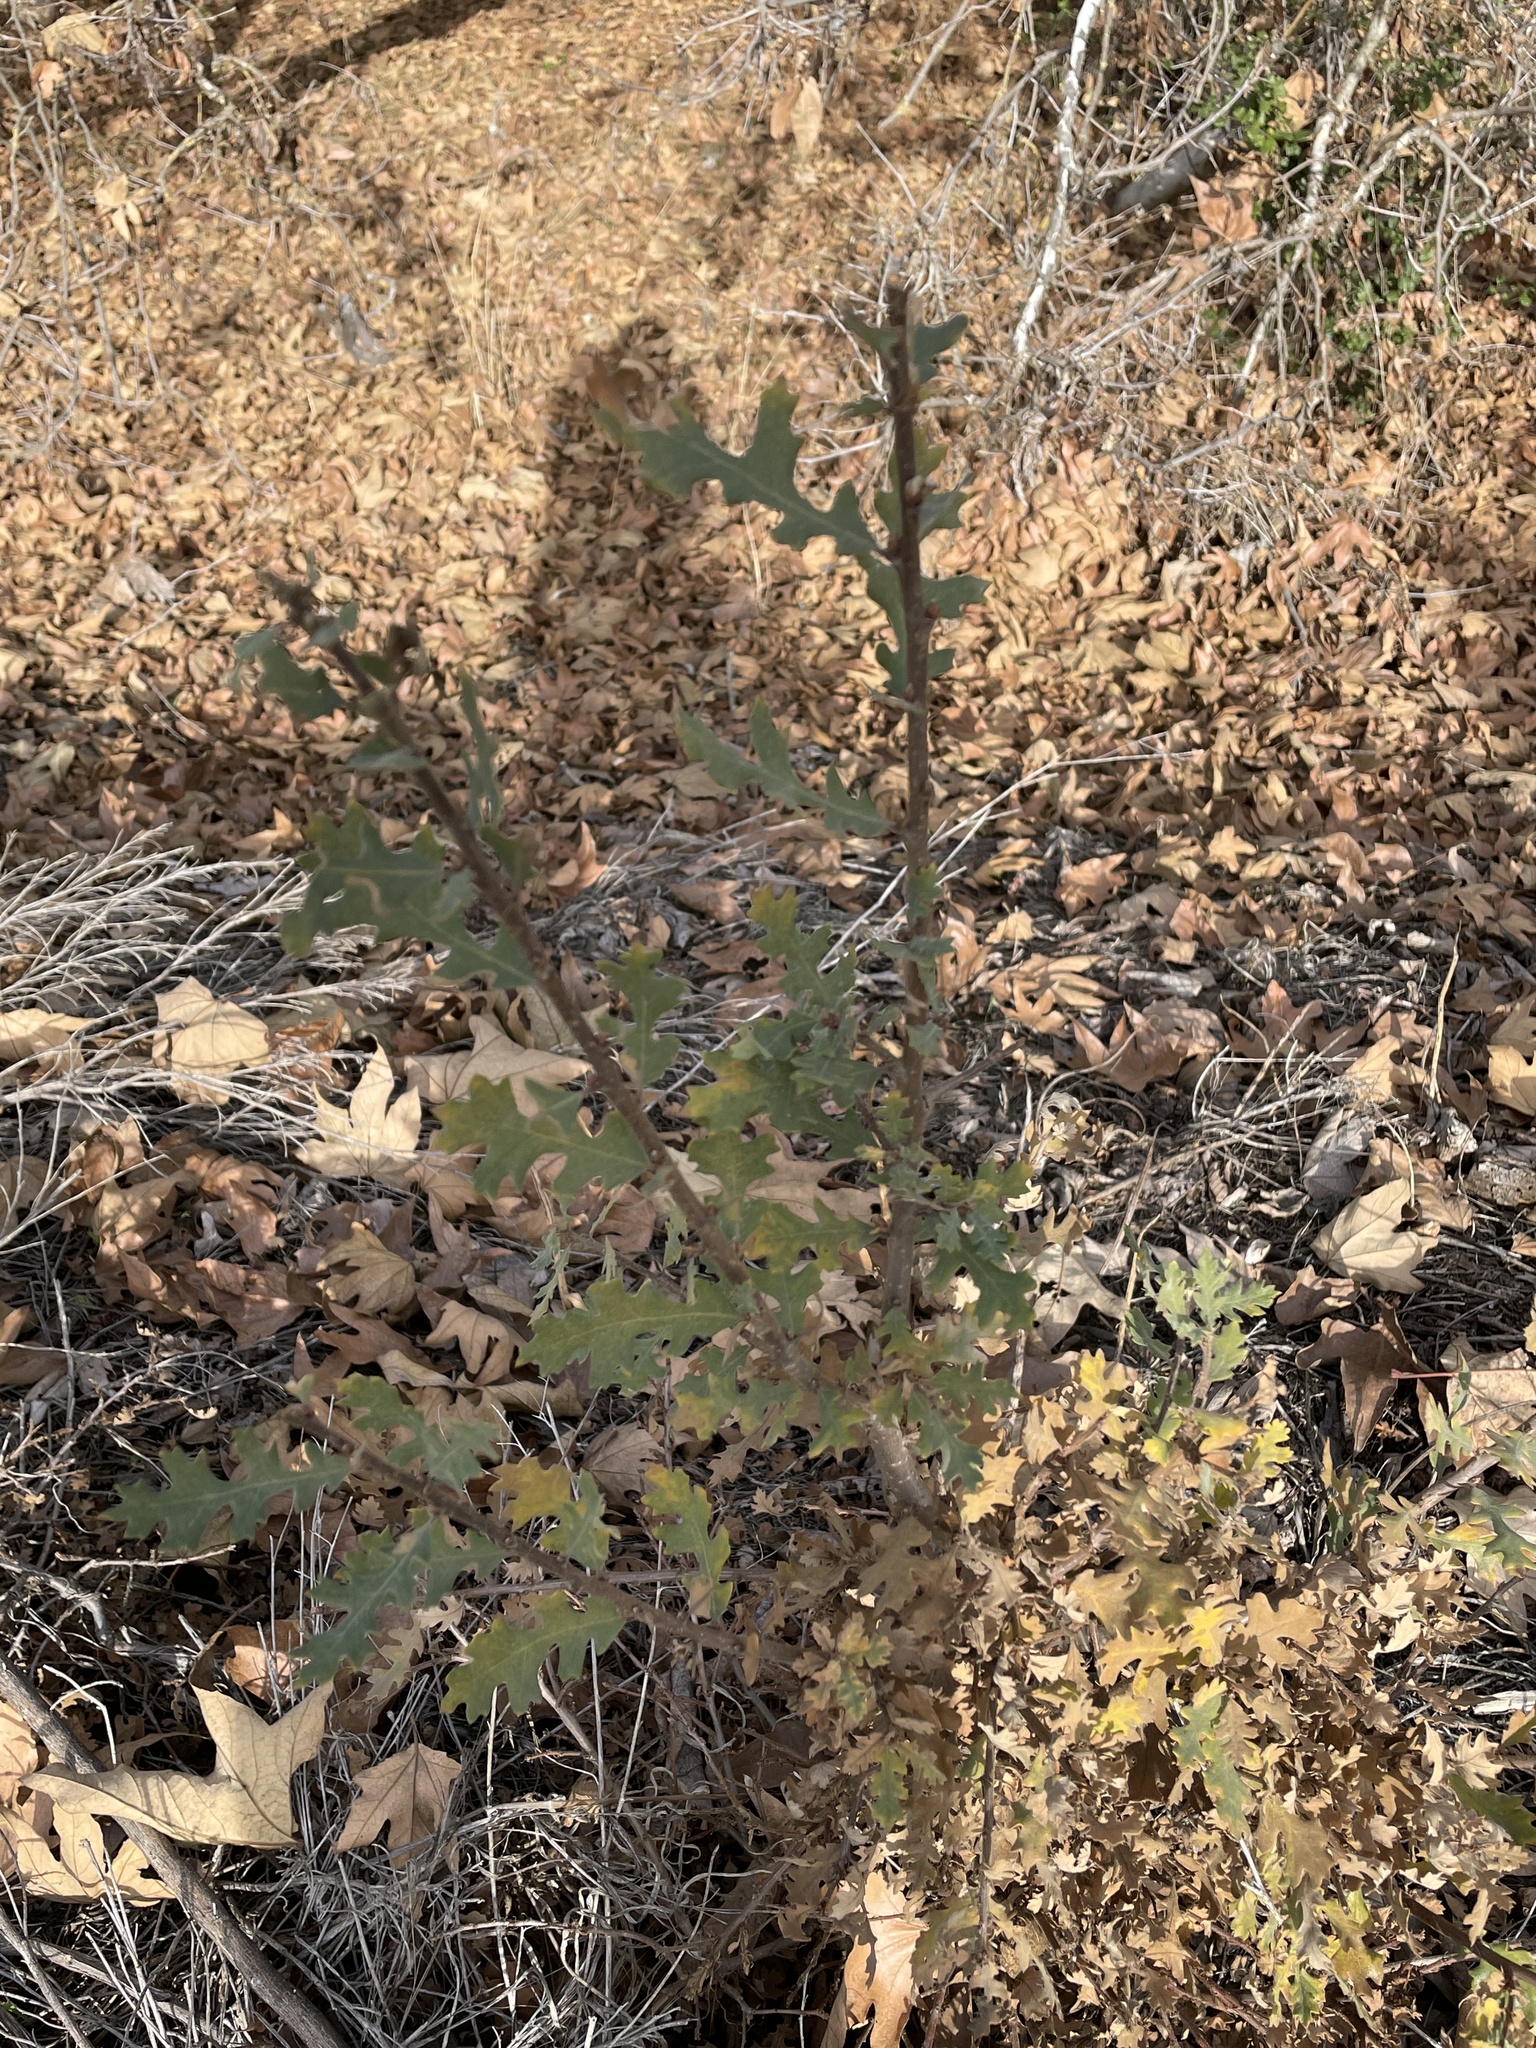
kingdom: Plantae
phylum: Tracheophyta
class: Magnoliopsida
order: Fagales
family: Fagaceae
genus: Quercus
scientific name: Quercus lobata
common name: Valley oak
